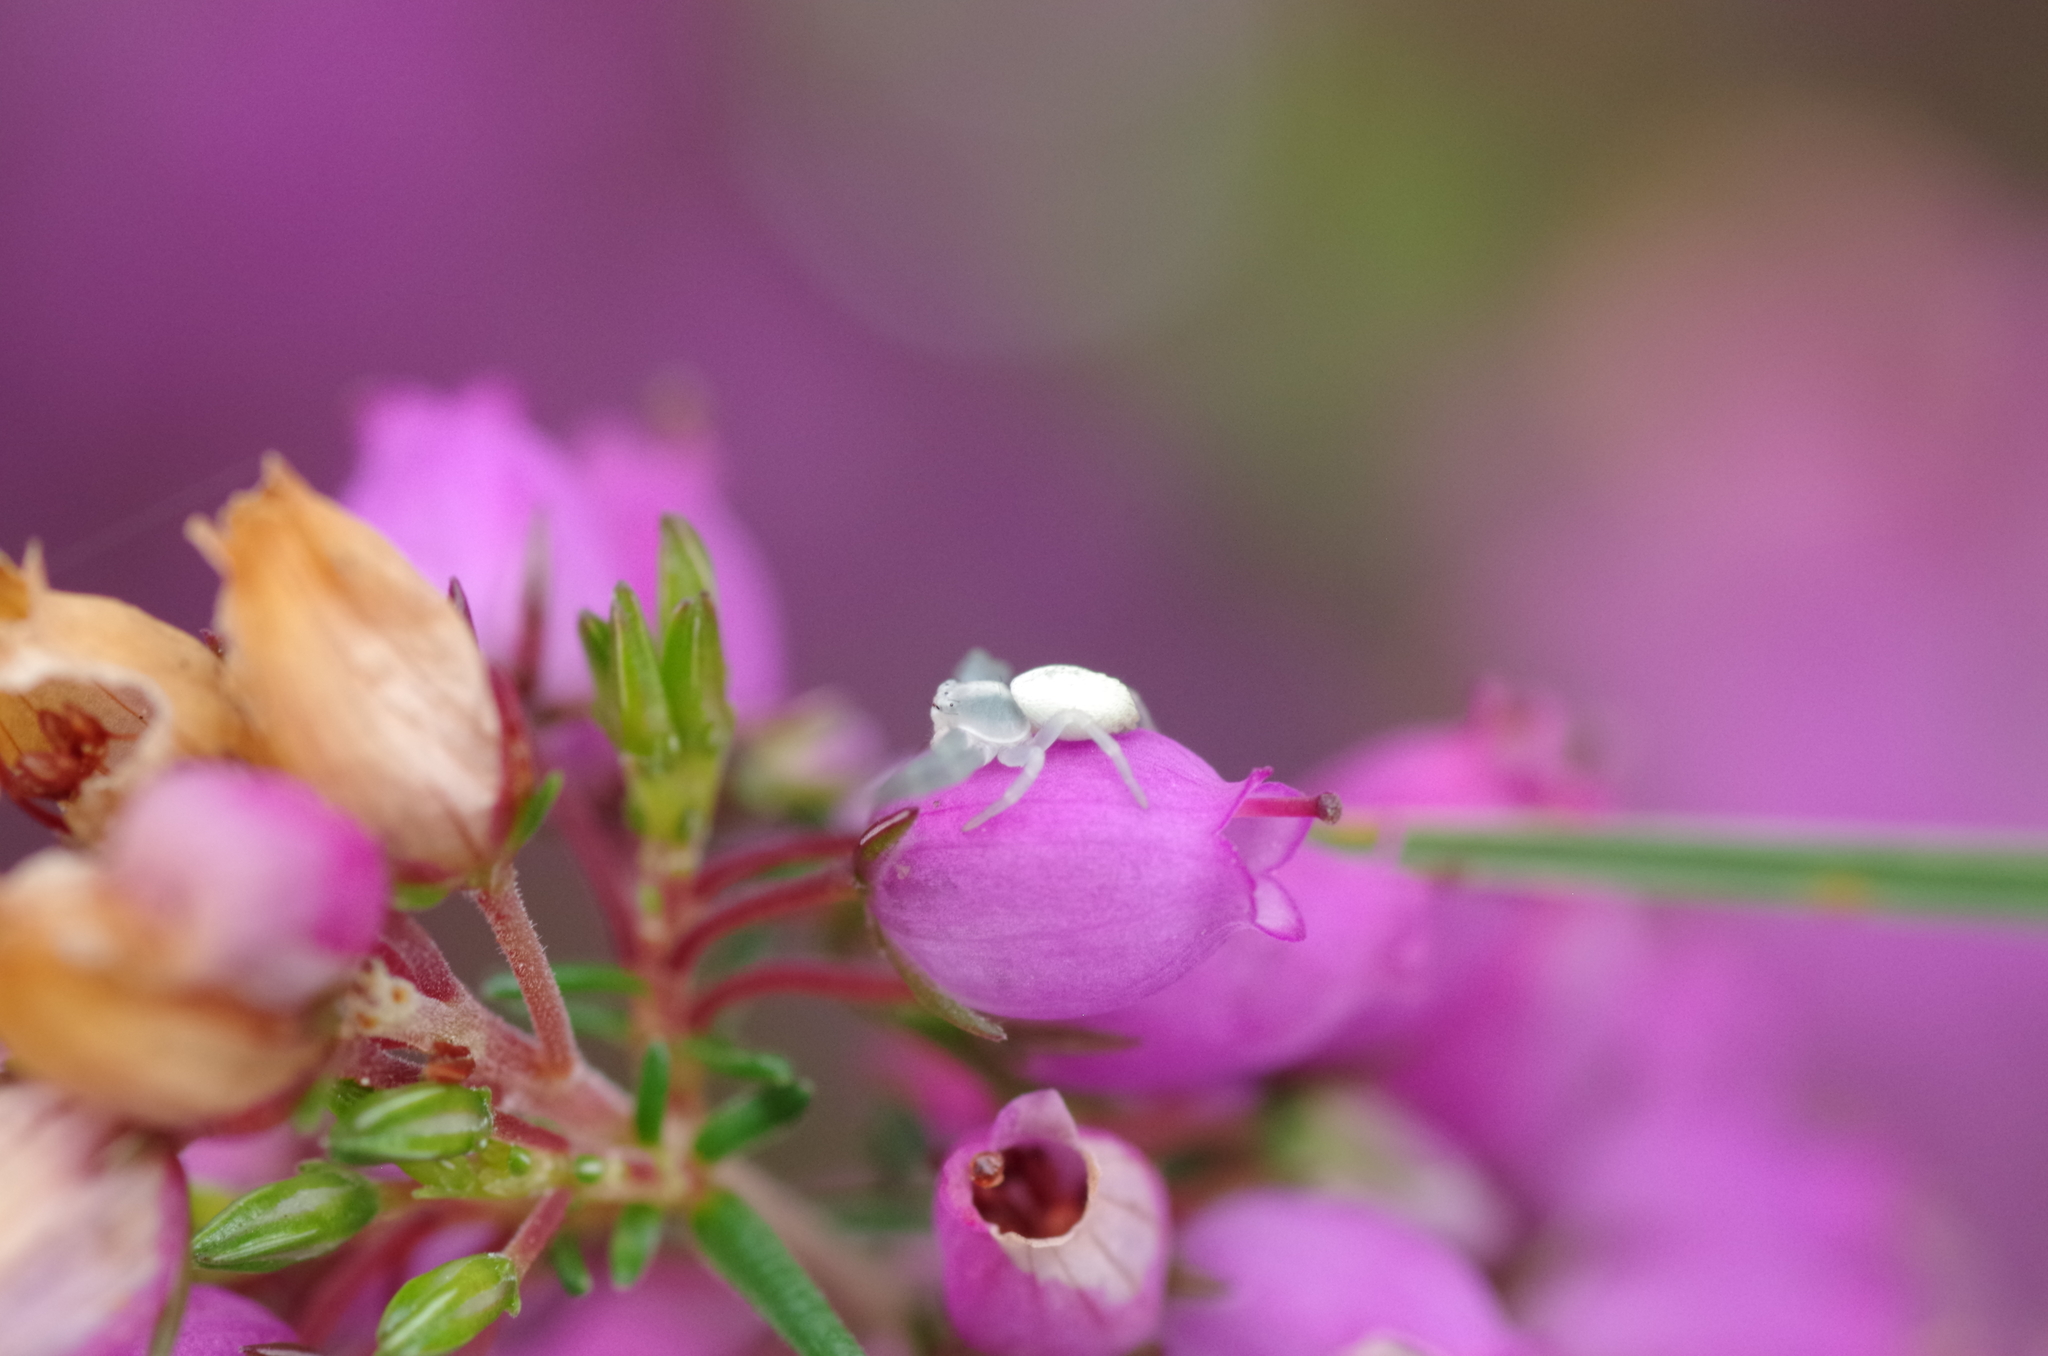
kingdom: Animalia
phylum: Arthropoda
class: Arachnida
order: Araneae
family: Thomisidae
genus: Misumena
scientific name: Misumena vatia
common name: Goldenrod crab spider
